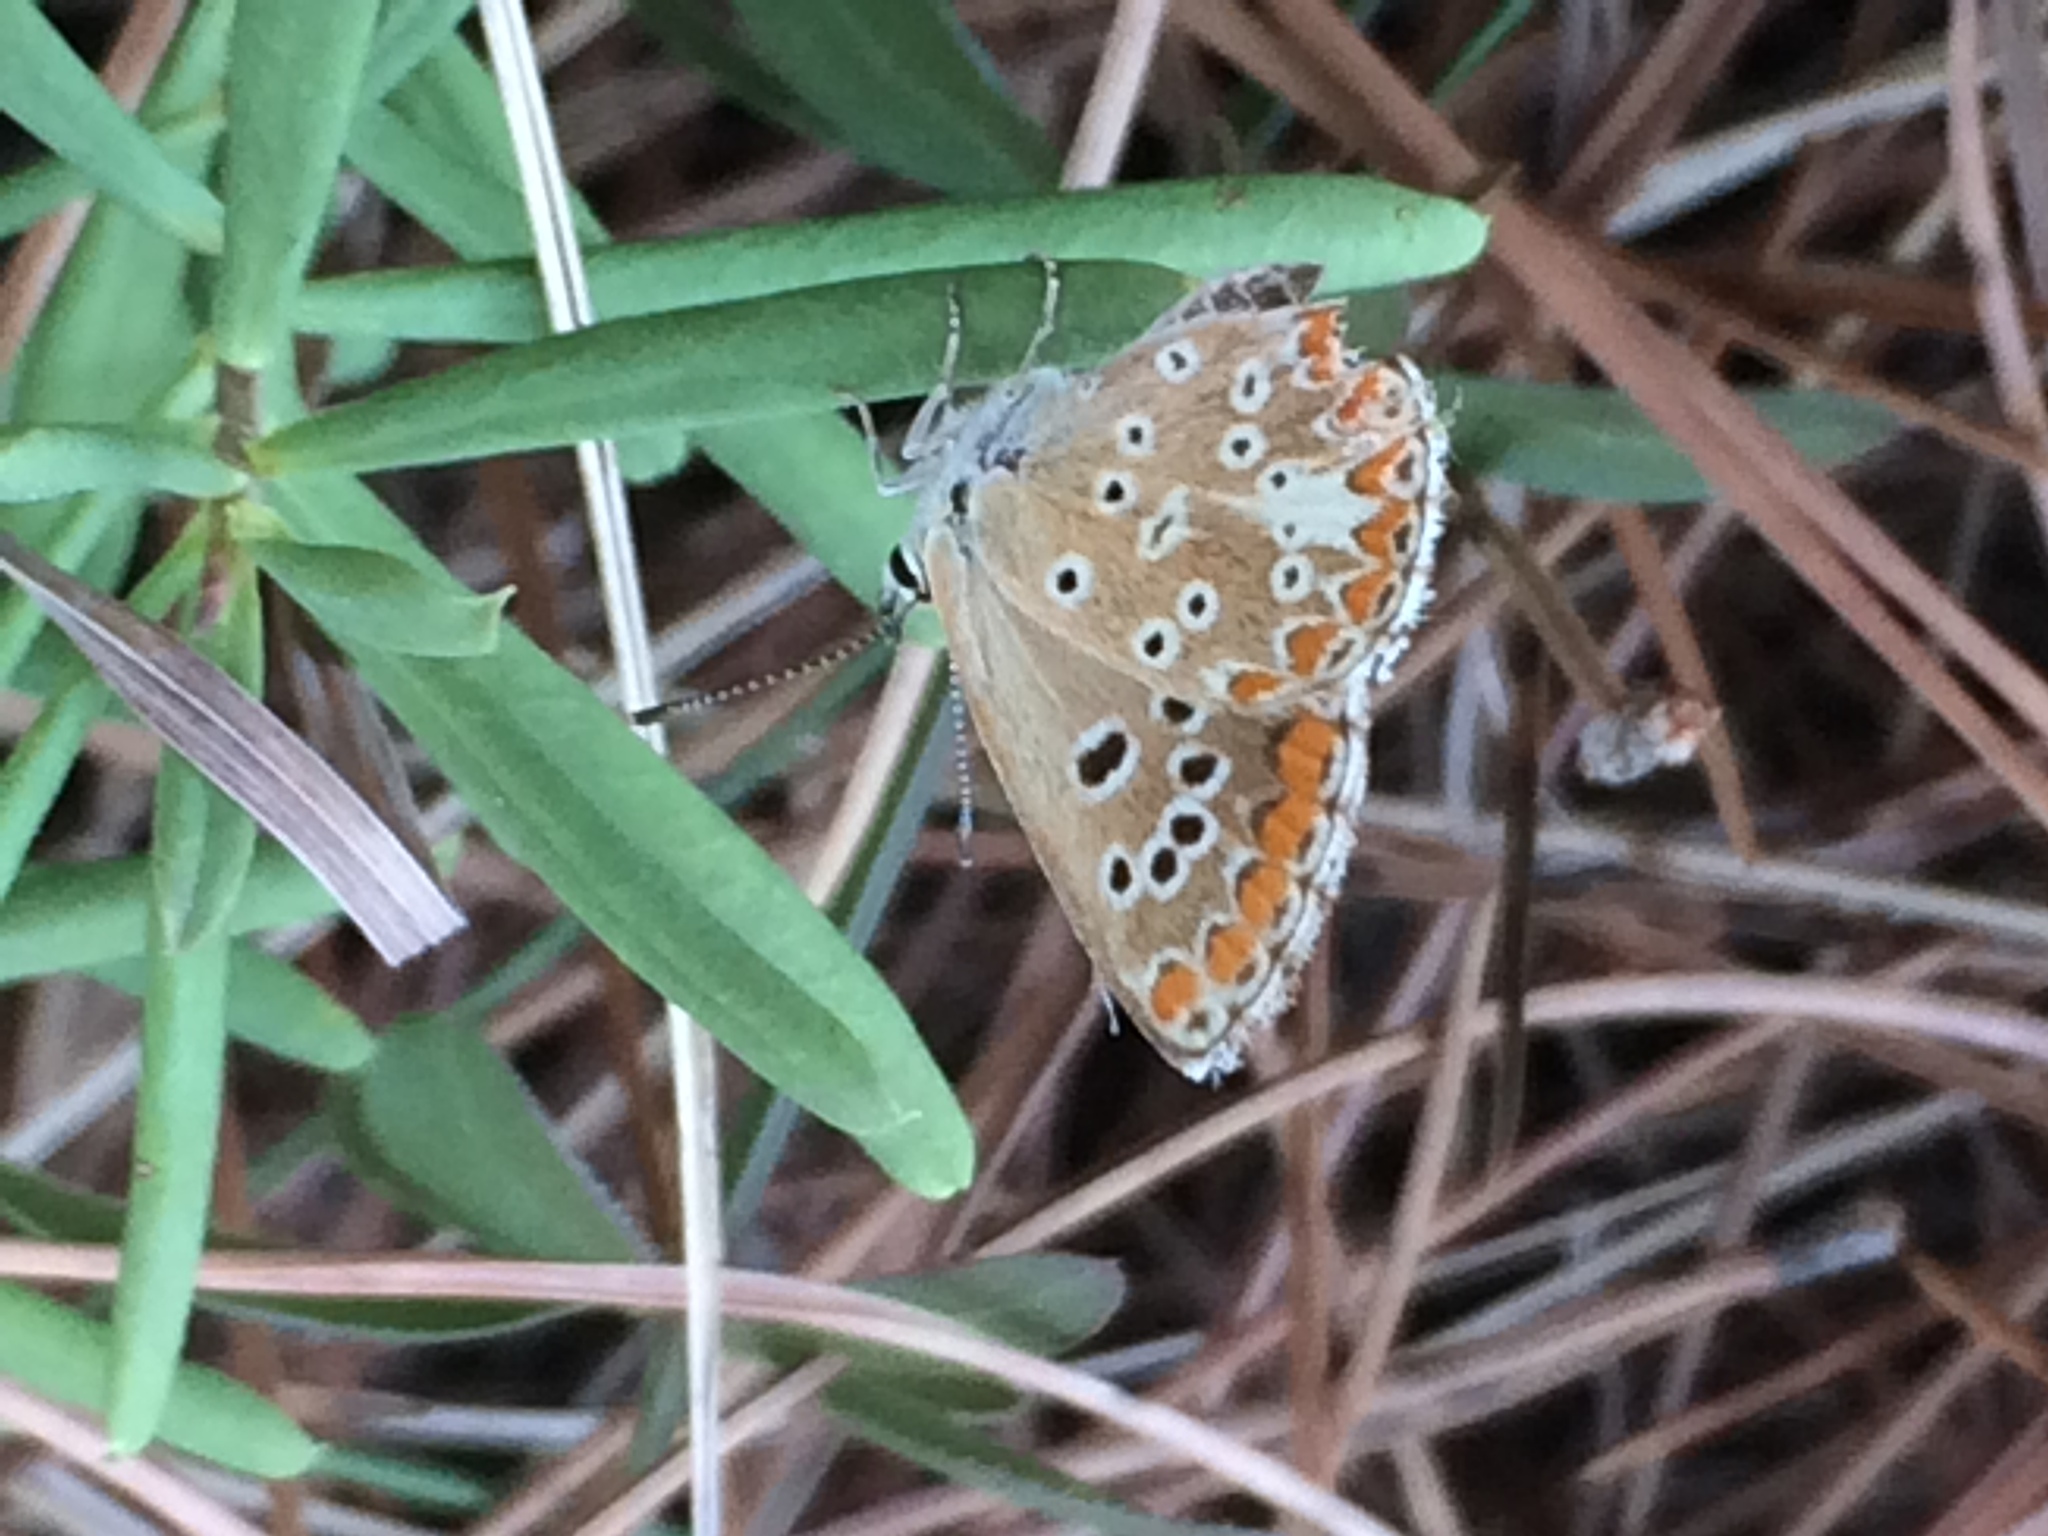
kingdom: Animalia
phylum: Arthropoda
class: Insecta
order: Lepidoptera
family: Lycaenidae
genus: Aricia
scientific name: Aricia cramera
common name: Eschscholtz´s brown  argus
